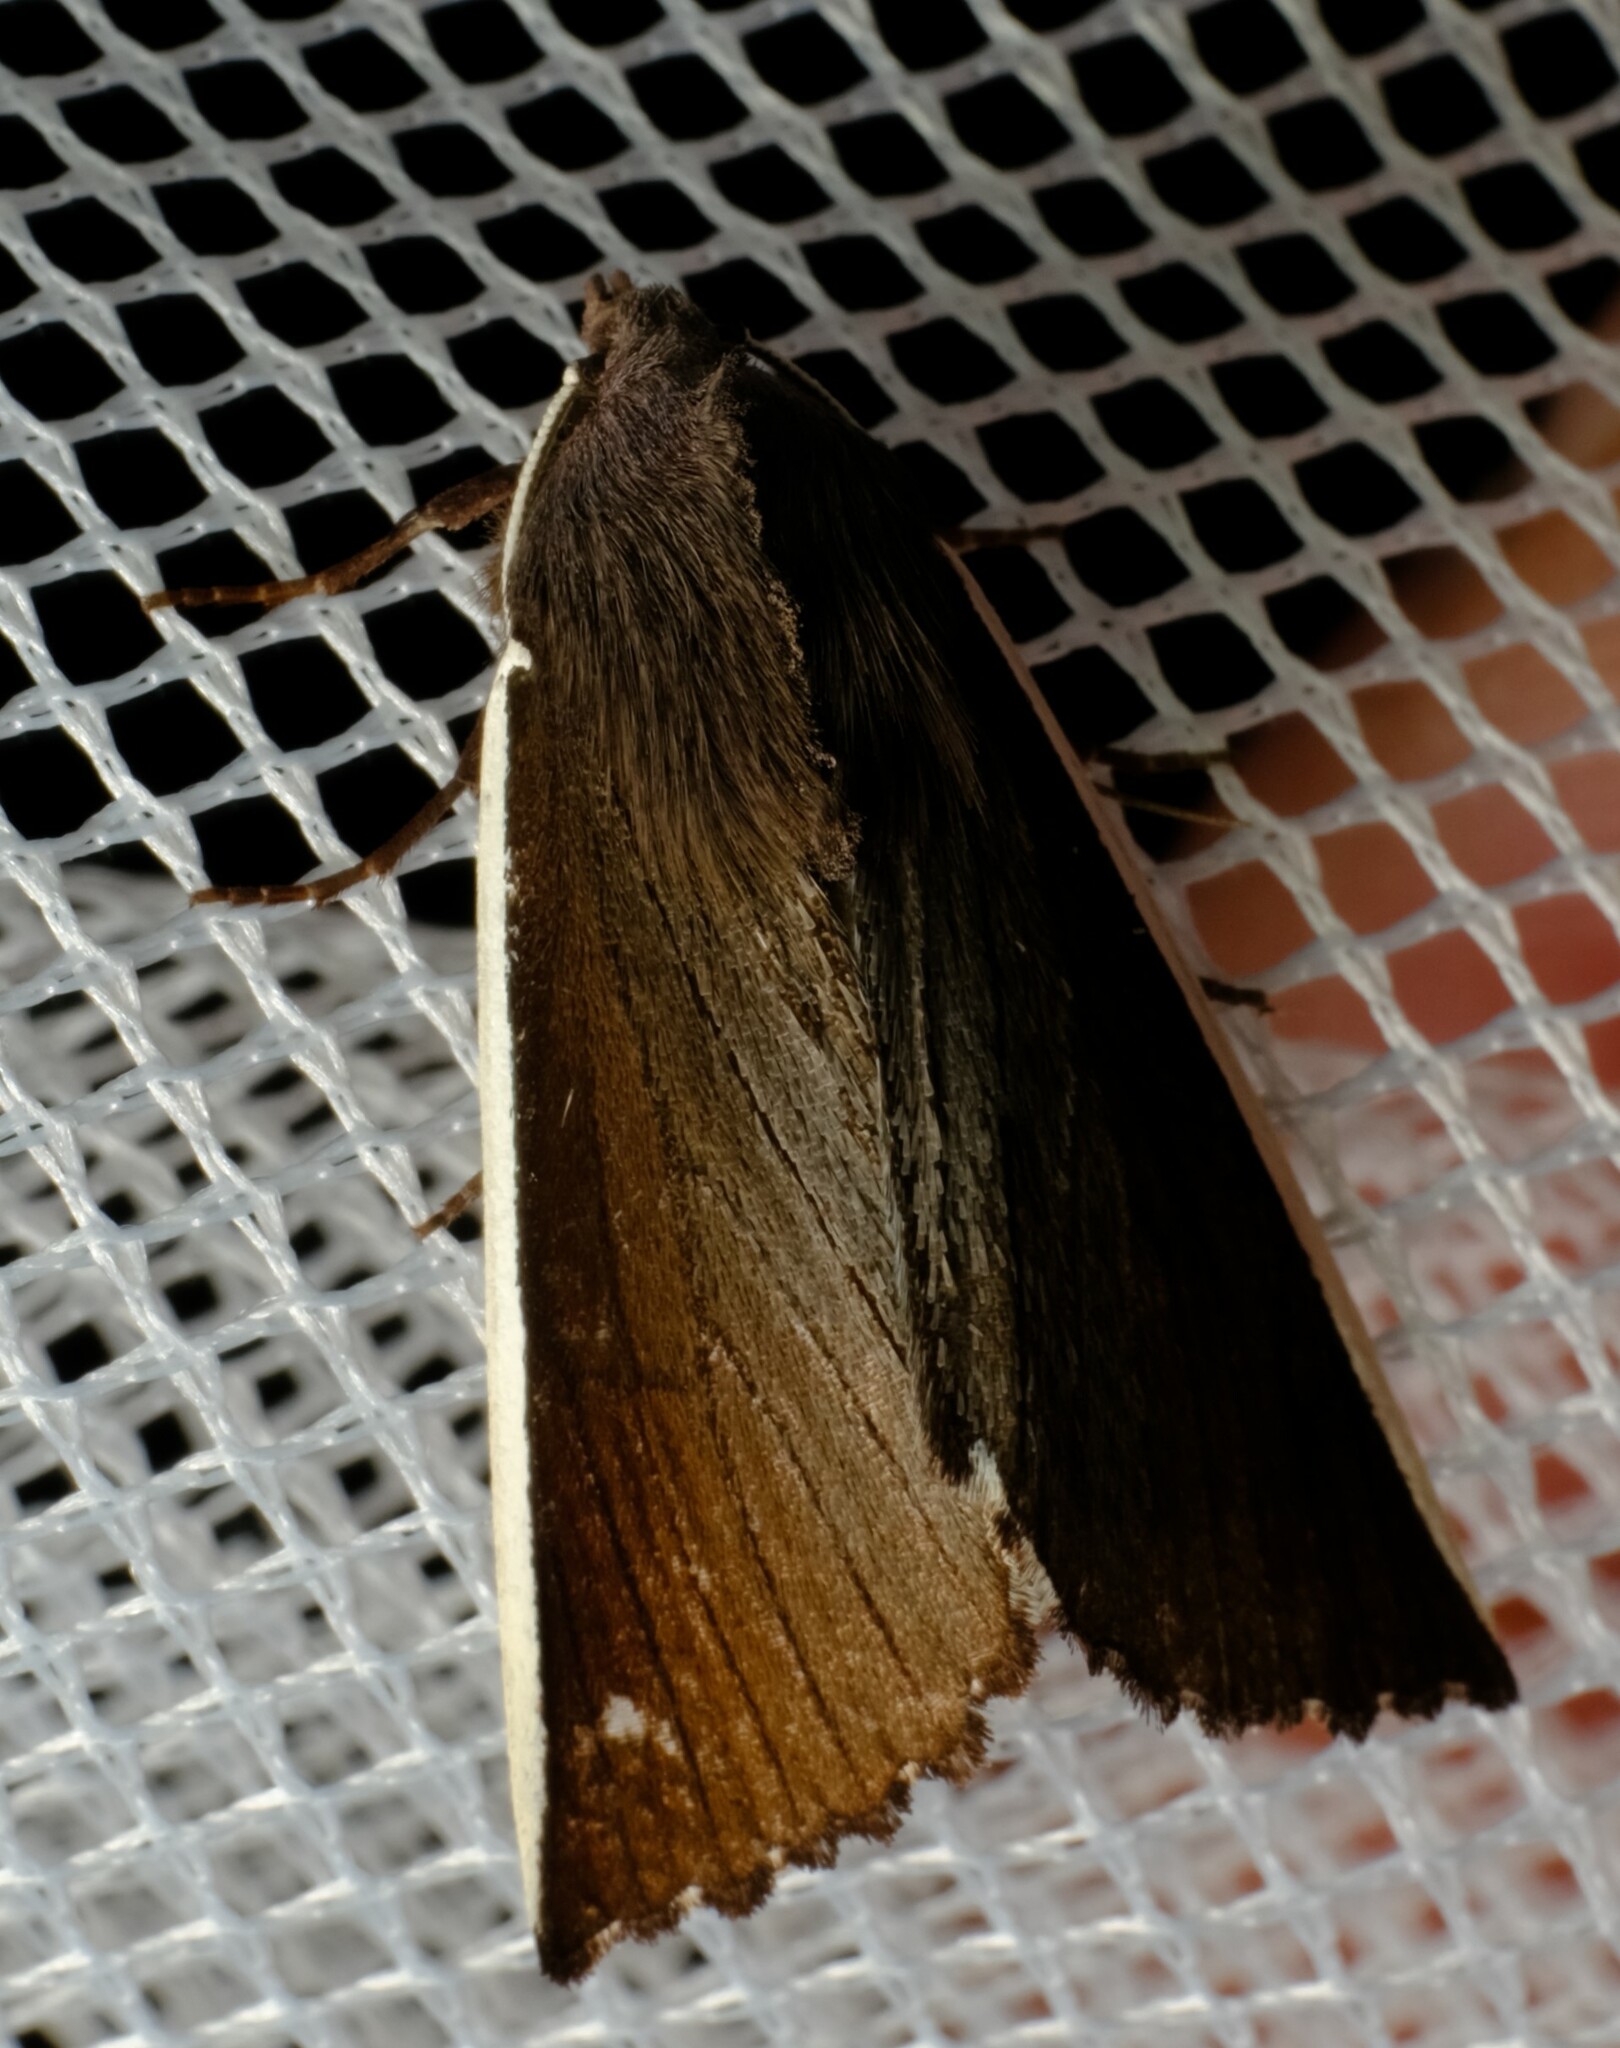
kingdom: Animalia
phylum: Arthropoda
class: Insecta
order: Lepidoptera
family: Geometridae
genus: Capusa
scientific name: Capusa chionopleura
